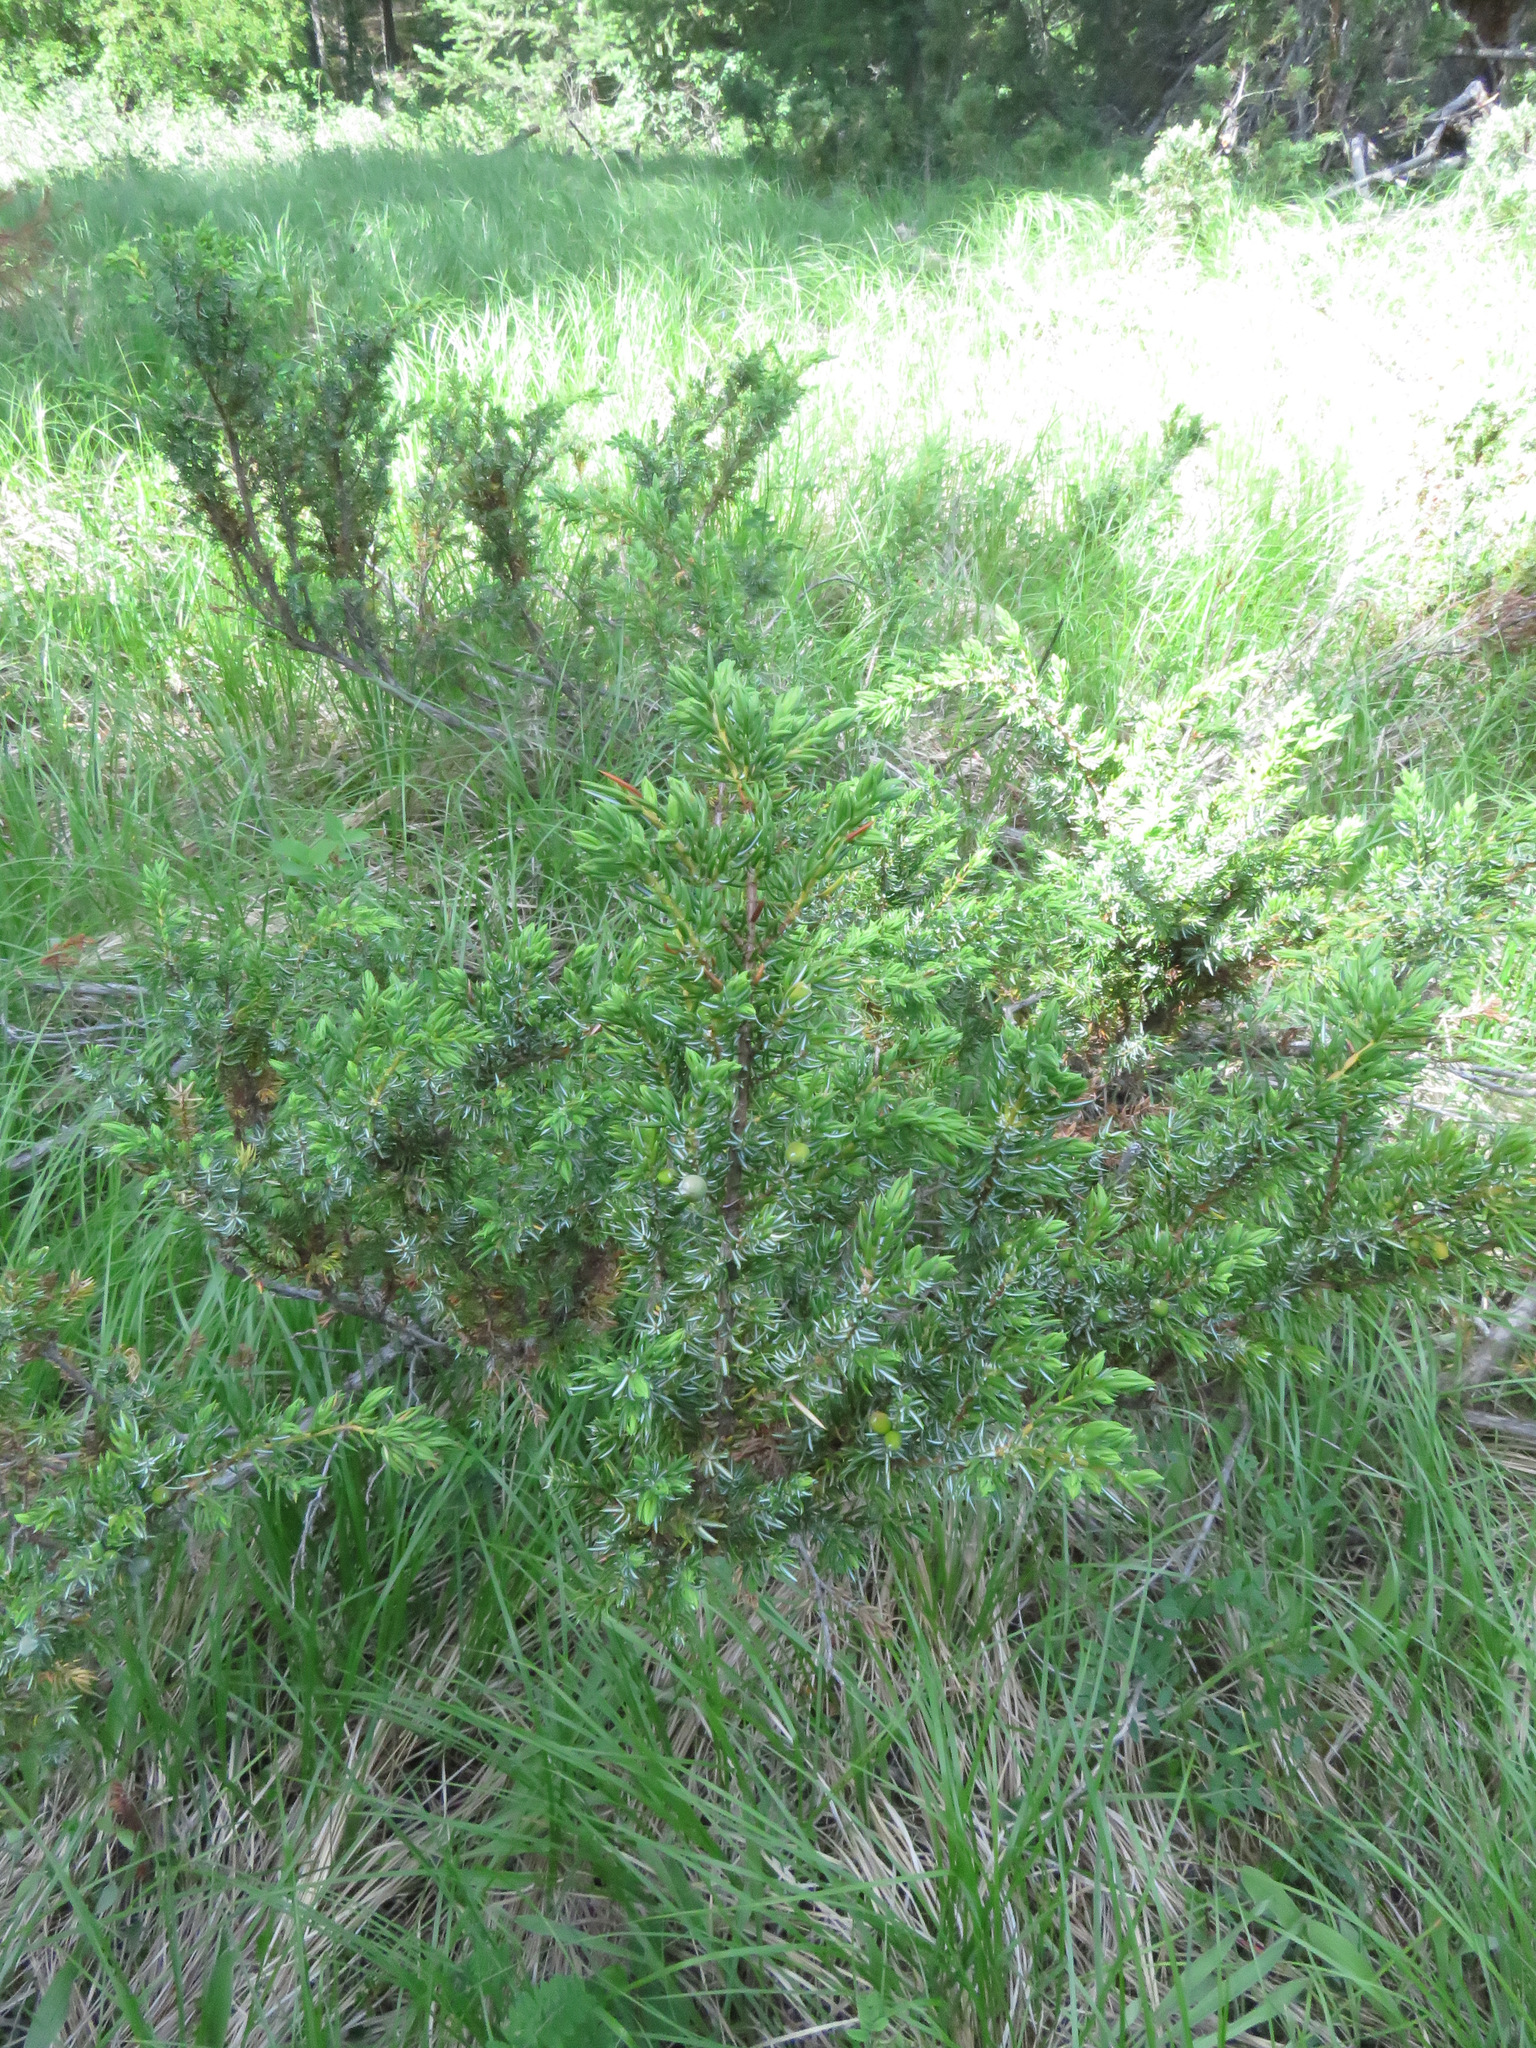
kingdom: Plantae
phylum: Tracheophyta
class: Pinopsida
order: Pinales
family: Cupressaceae
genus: Juniperus
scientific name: Juniperus communis
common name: Common juniper
